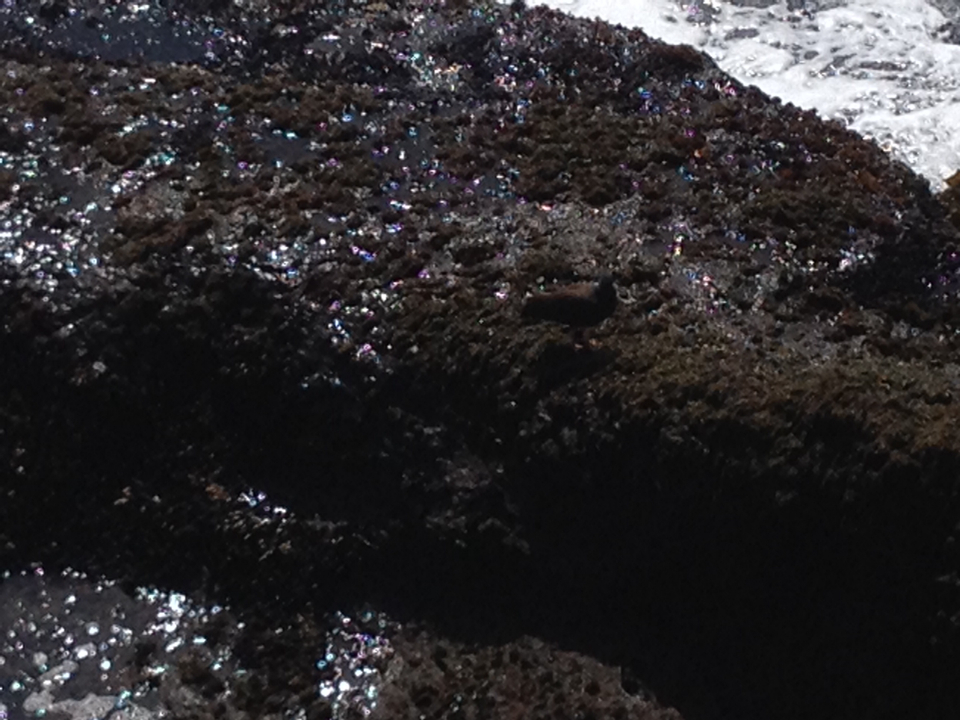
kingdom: Animalia
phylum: Chordata
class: Aves
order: Charadriiformes
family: Haematopodidae
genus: Haematopus
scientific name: Haematopus bachmani
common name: Black oystercatcher
